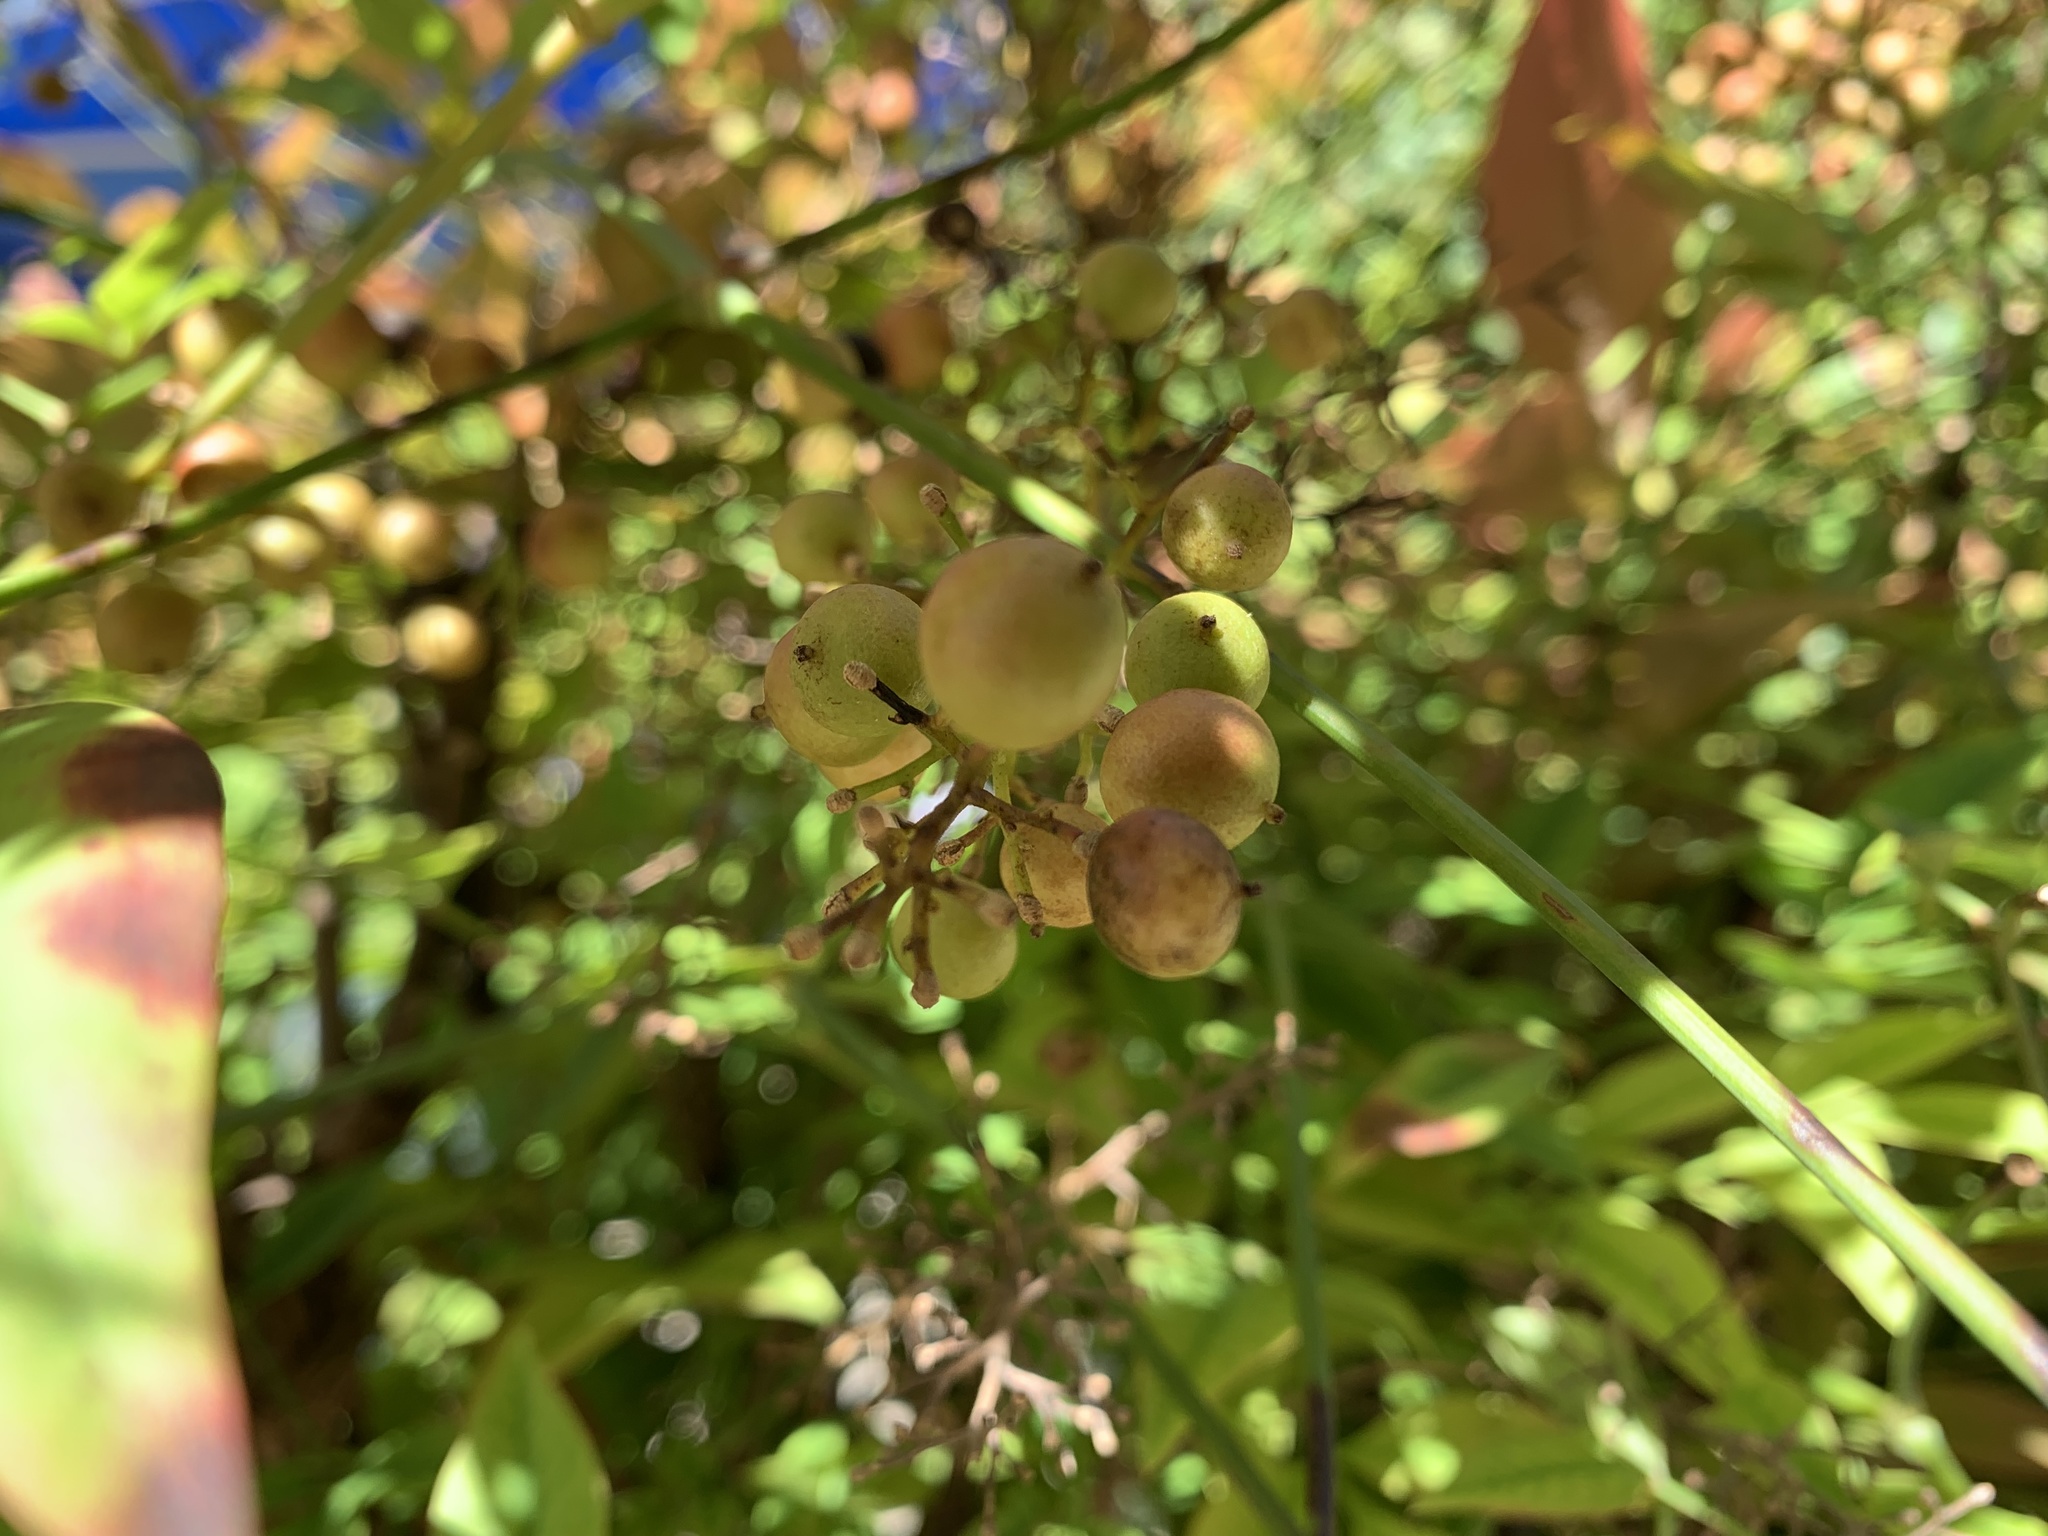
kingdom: Plantae
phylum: Tracheophyta
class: Magnoliopsida
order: Ranunculales
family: Berberidaceae
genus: Nandina
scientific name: Nandina domestica
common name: Sacred bamboo
